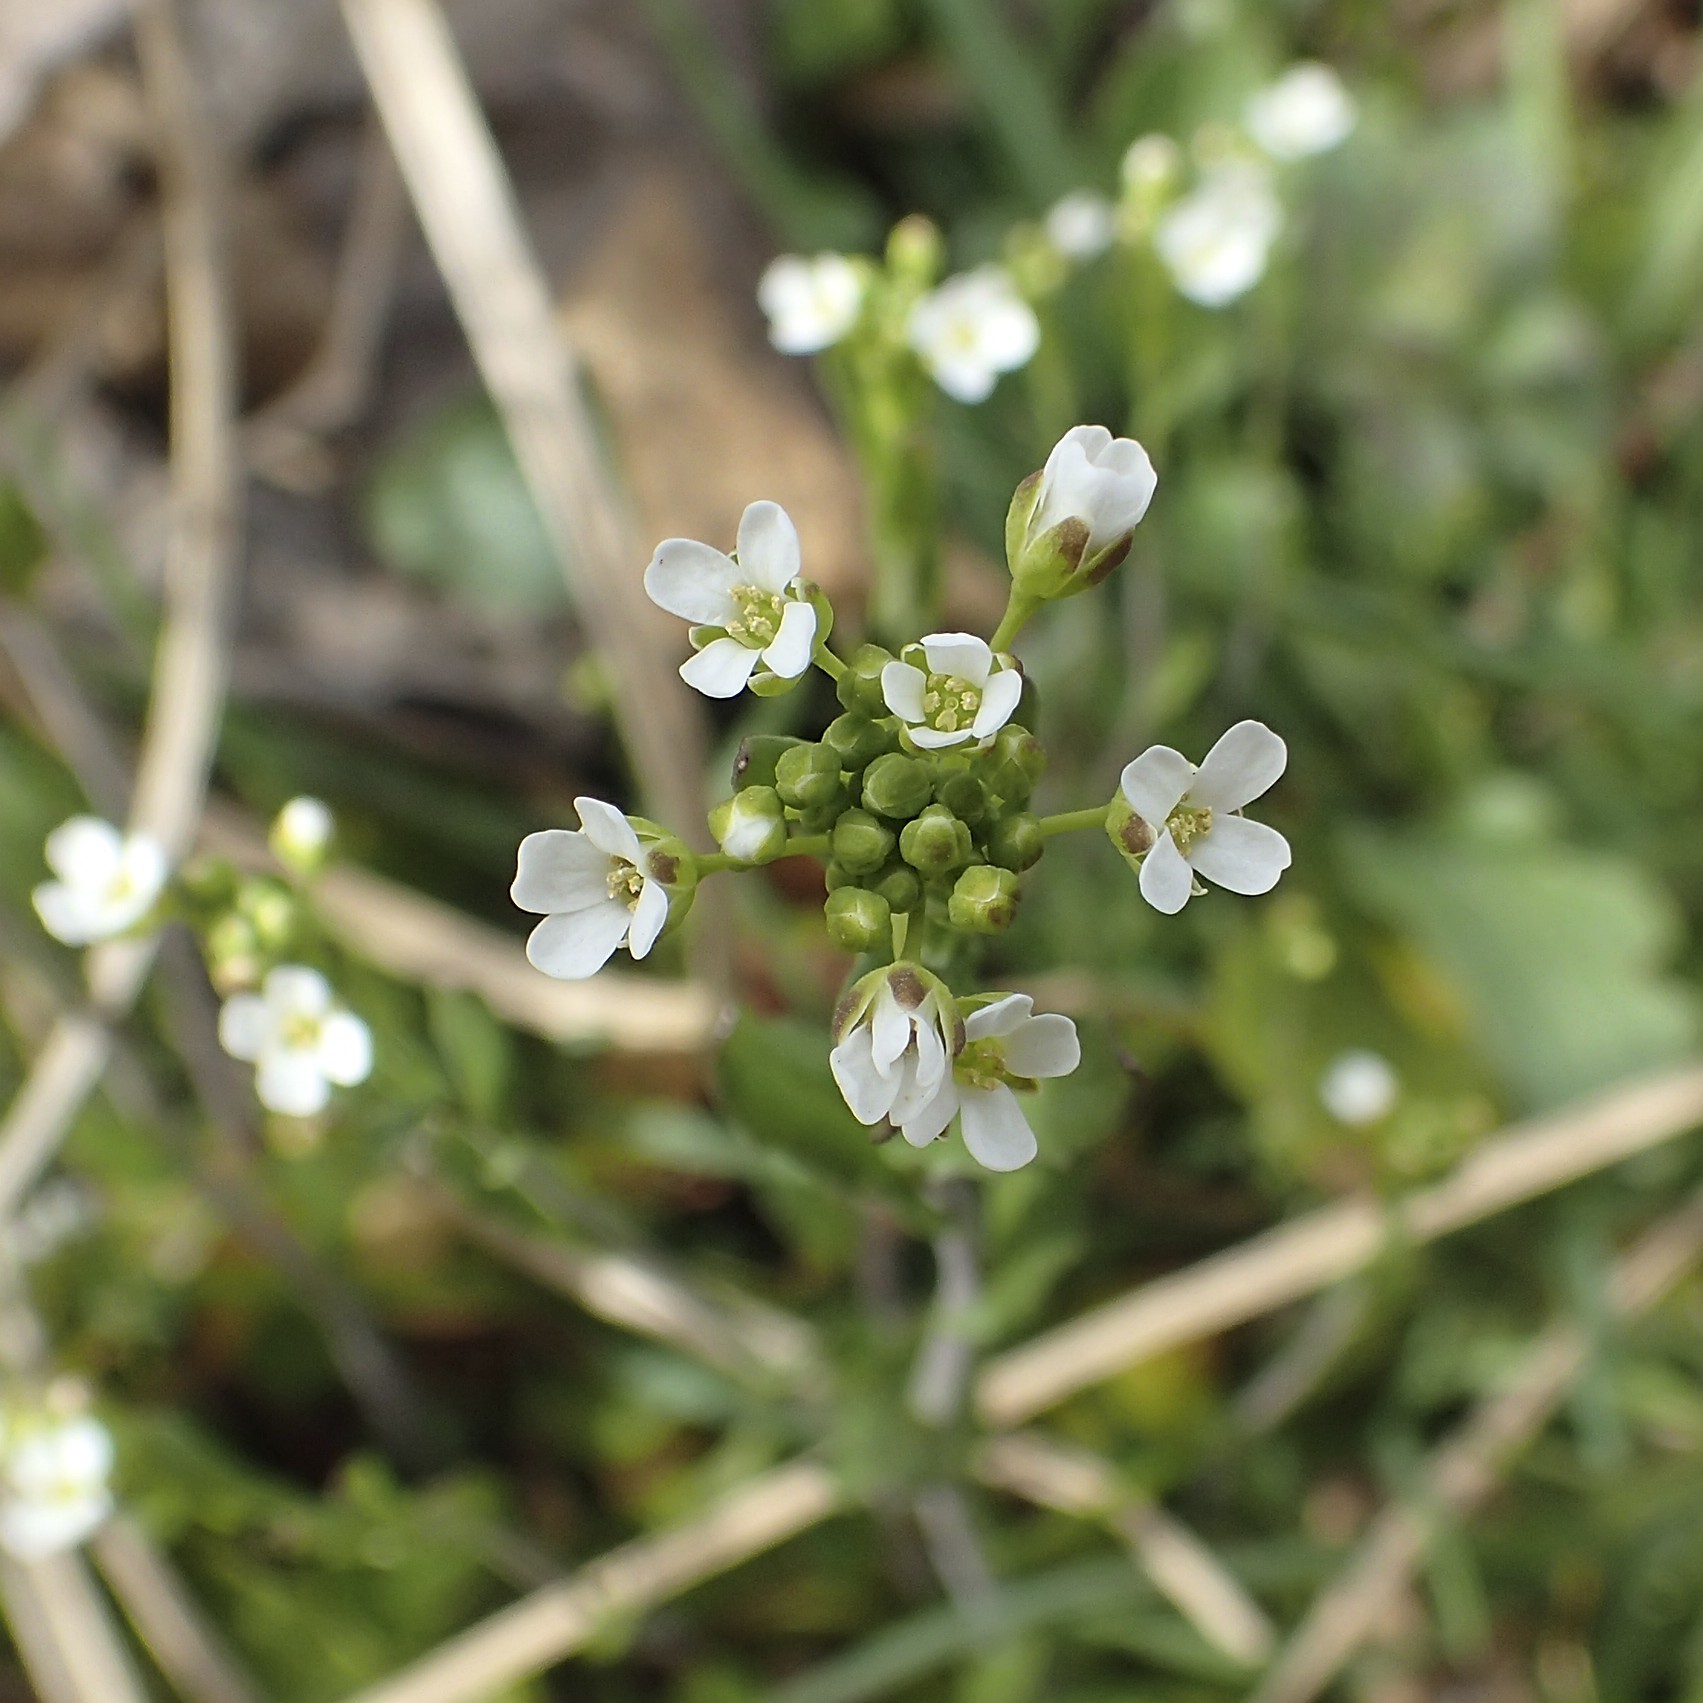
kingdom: Plantae
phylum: Tracheophyta
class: Magnoliopsida
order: Brassicales
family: Brassicaceae
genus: Mummenhoffia
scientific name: Mummenhoffia alliacea
